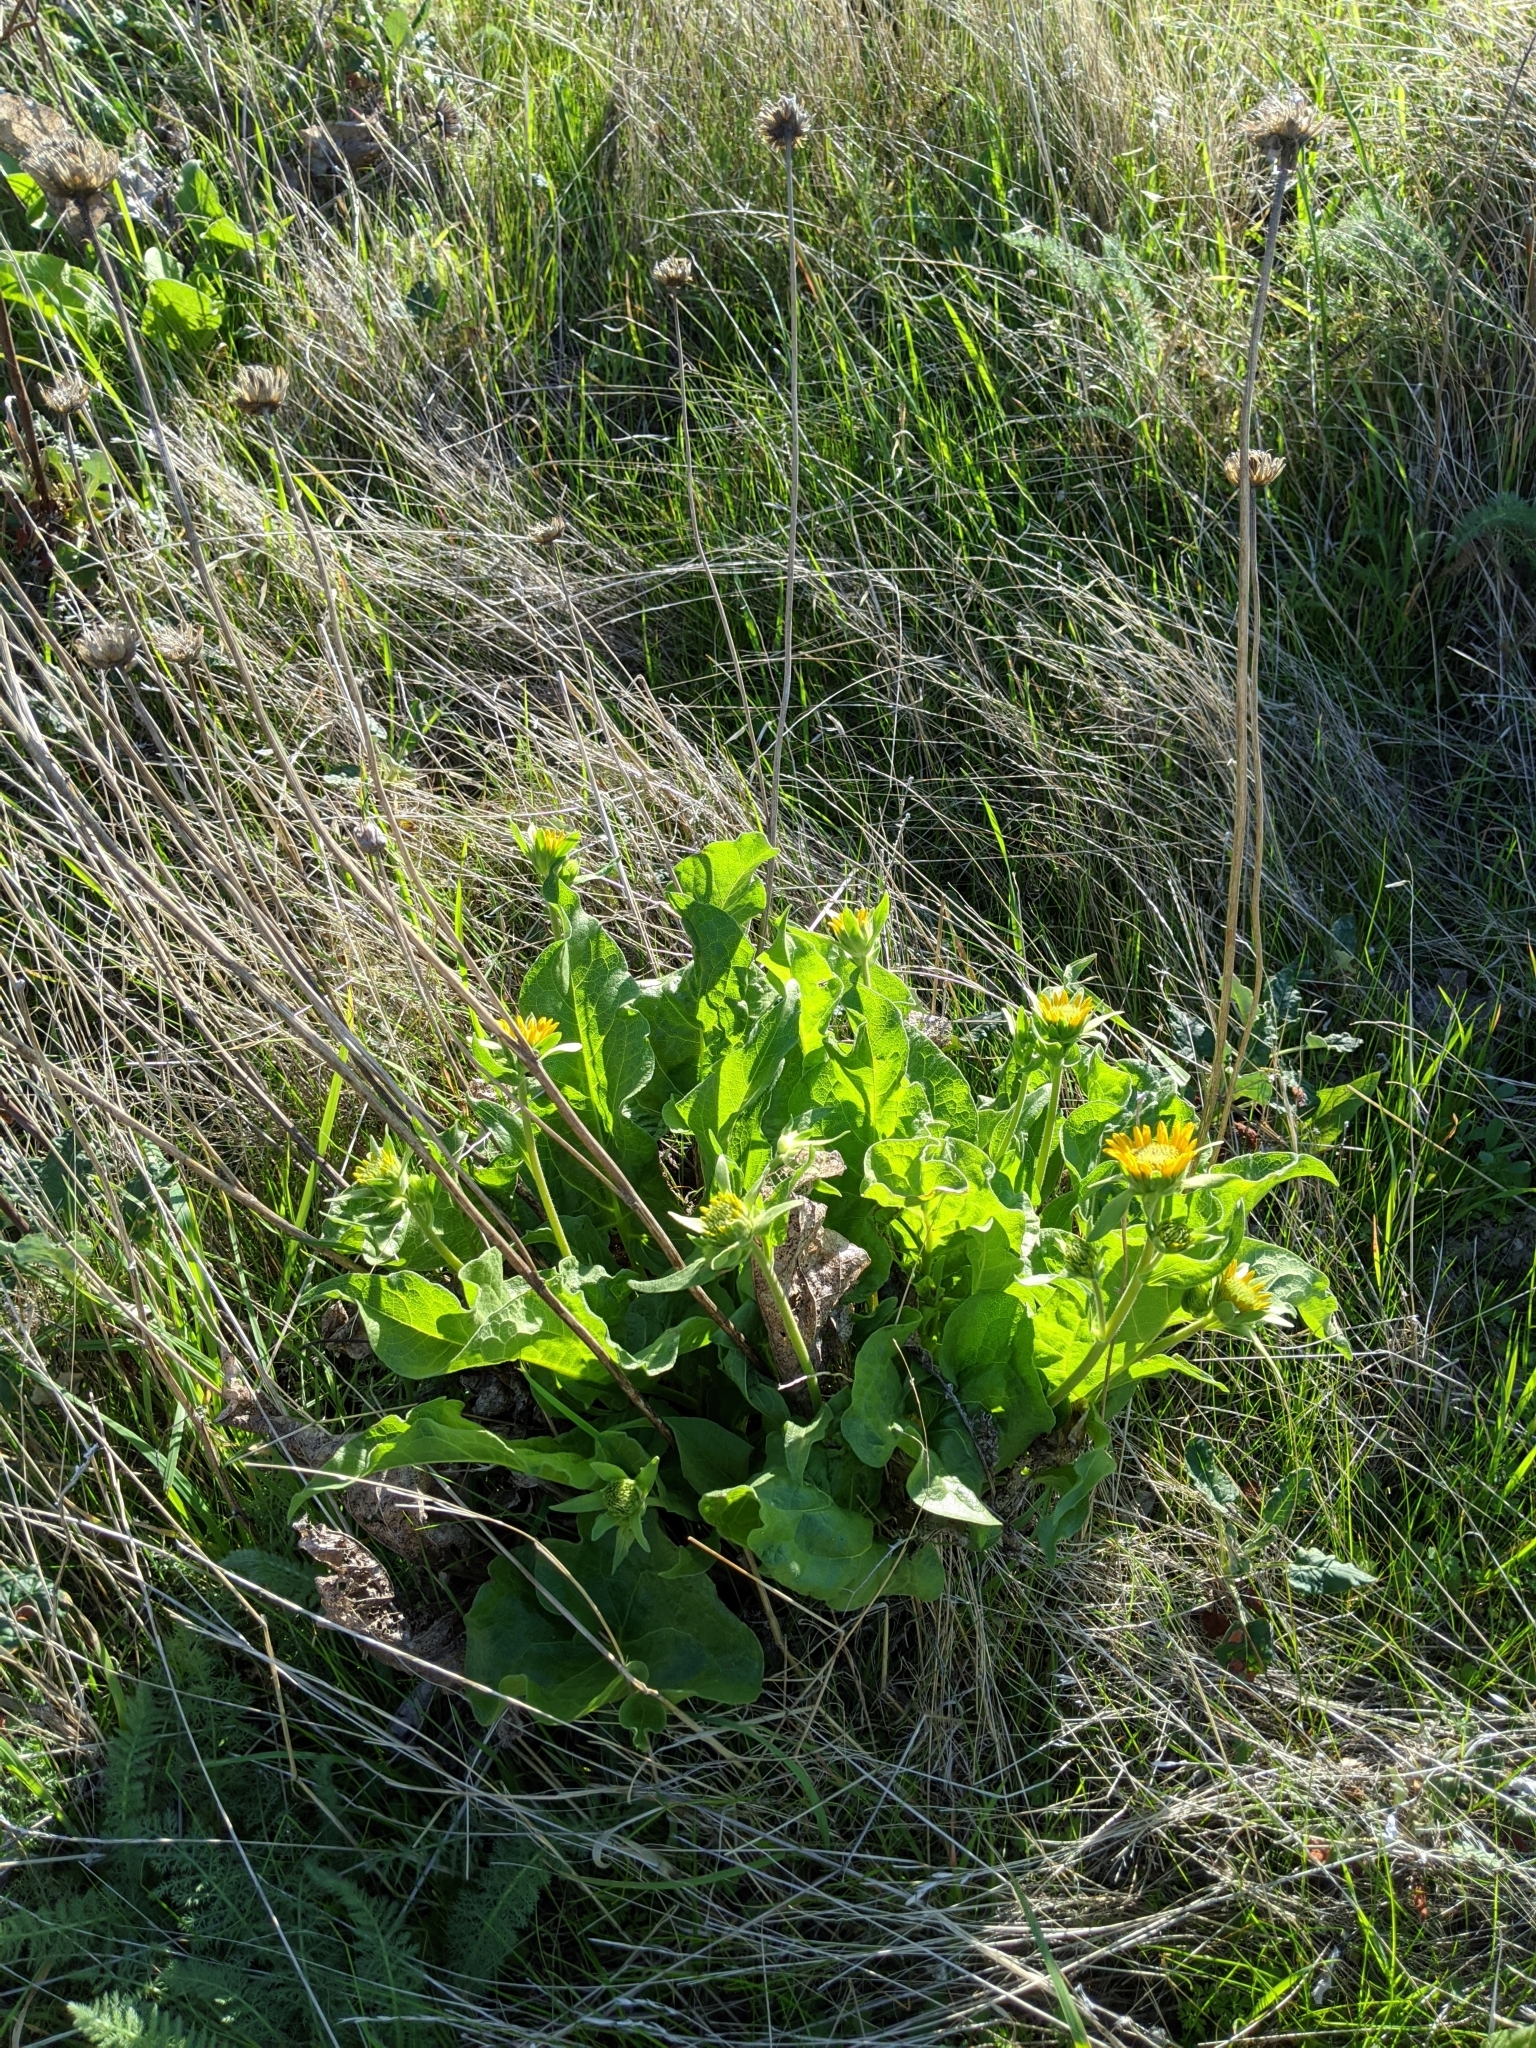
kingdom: Plantae
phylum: Tracheophyta
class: Magnoliopsida
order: Asterales
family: Asteraceae
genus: Balsamorhiza
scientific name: Balsamorhiza deltoidea
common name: Deltoid balsamroot
